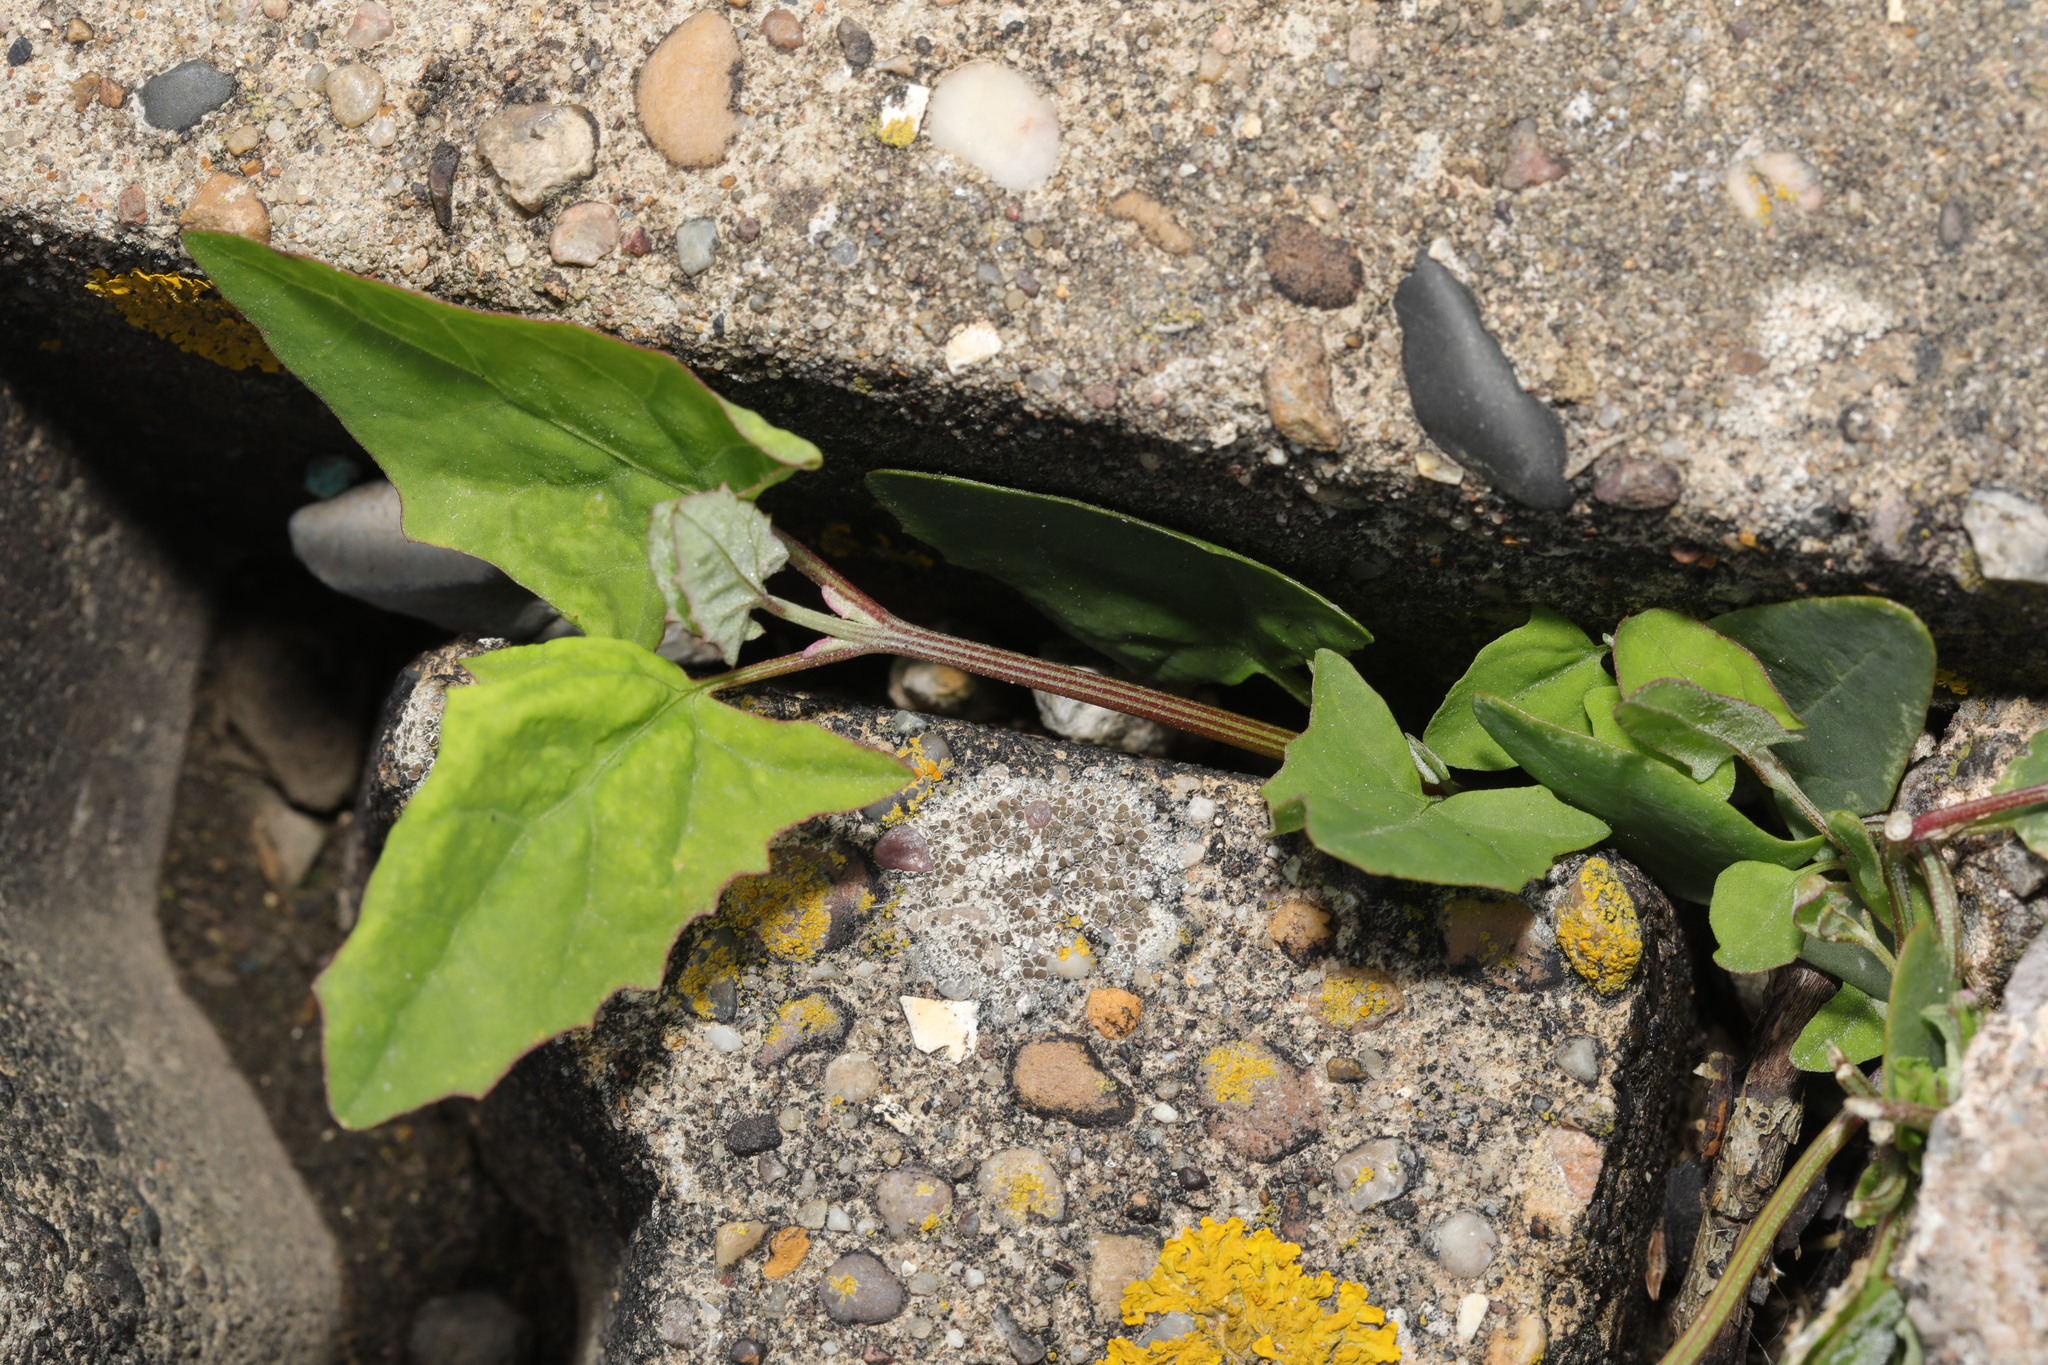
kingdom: Plantae
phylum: Tracheophyta
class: Magnoliopsida
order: Caryophyllales
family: Amaranthaceae
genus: Atriplex
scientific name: Atriplex prostrata
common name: Spear-leaved orache
